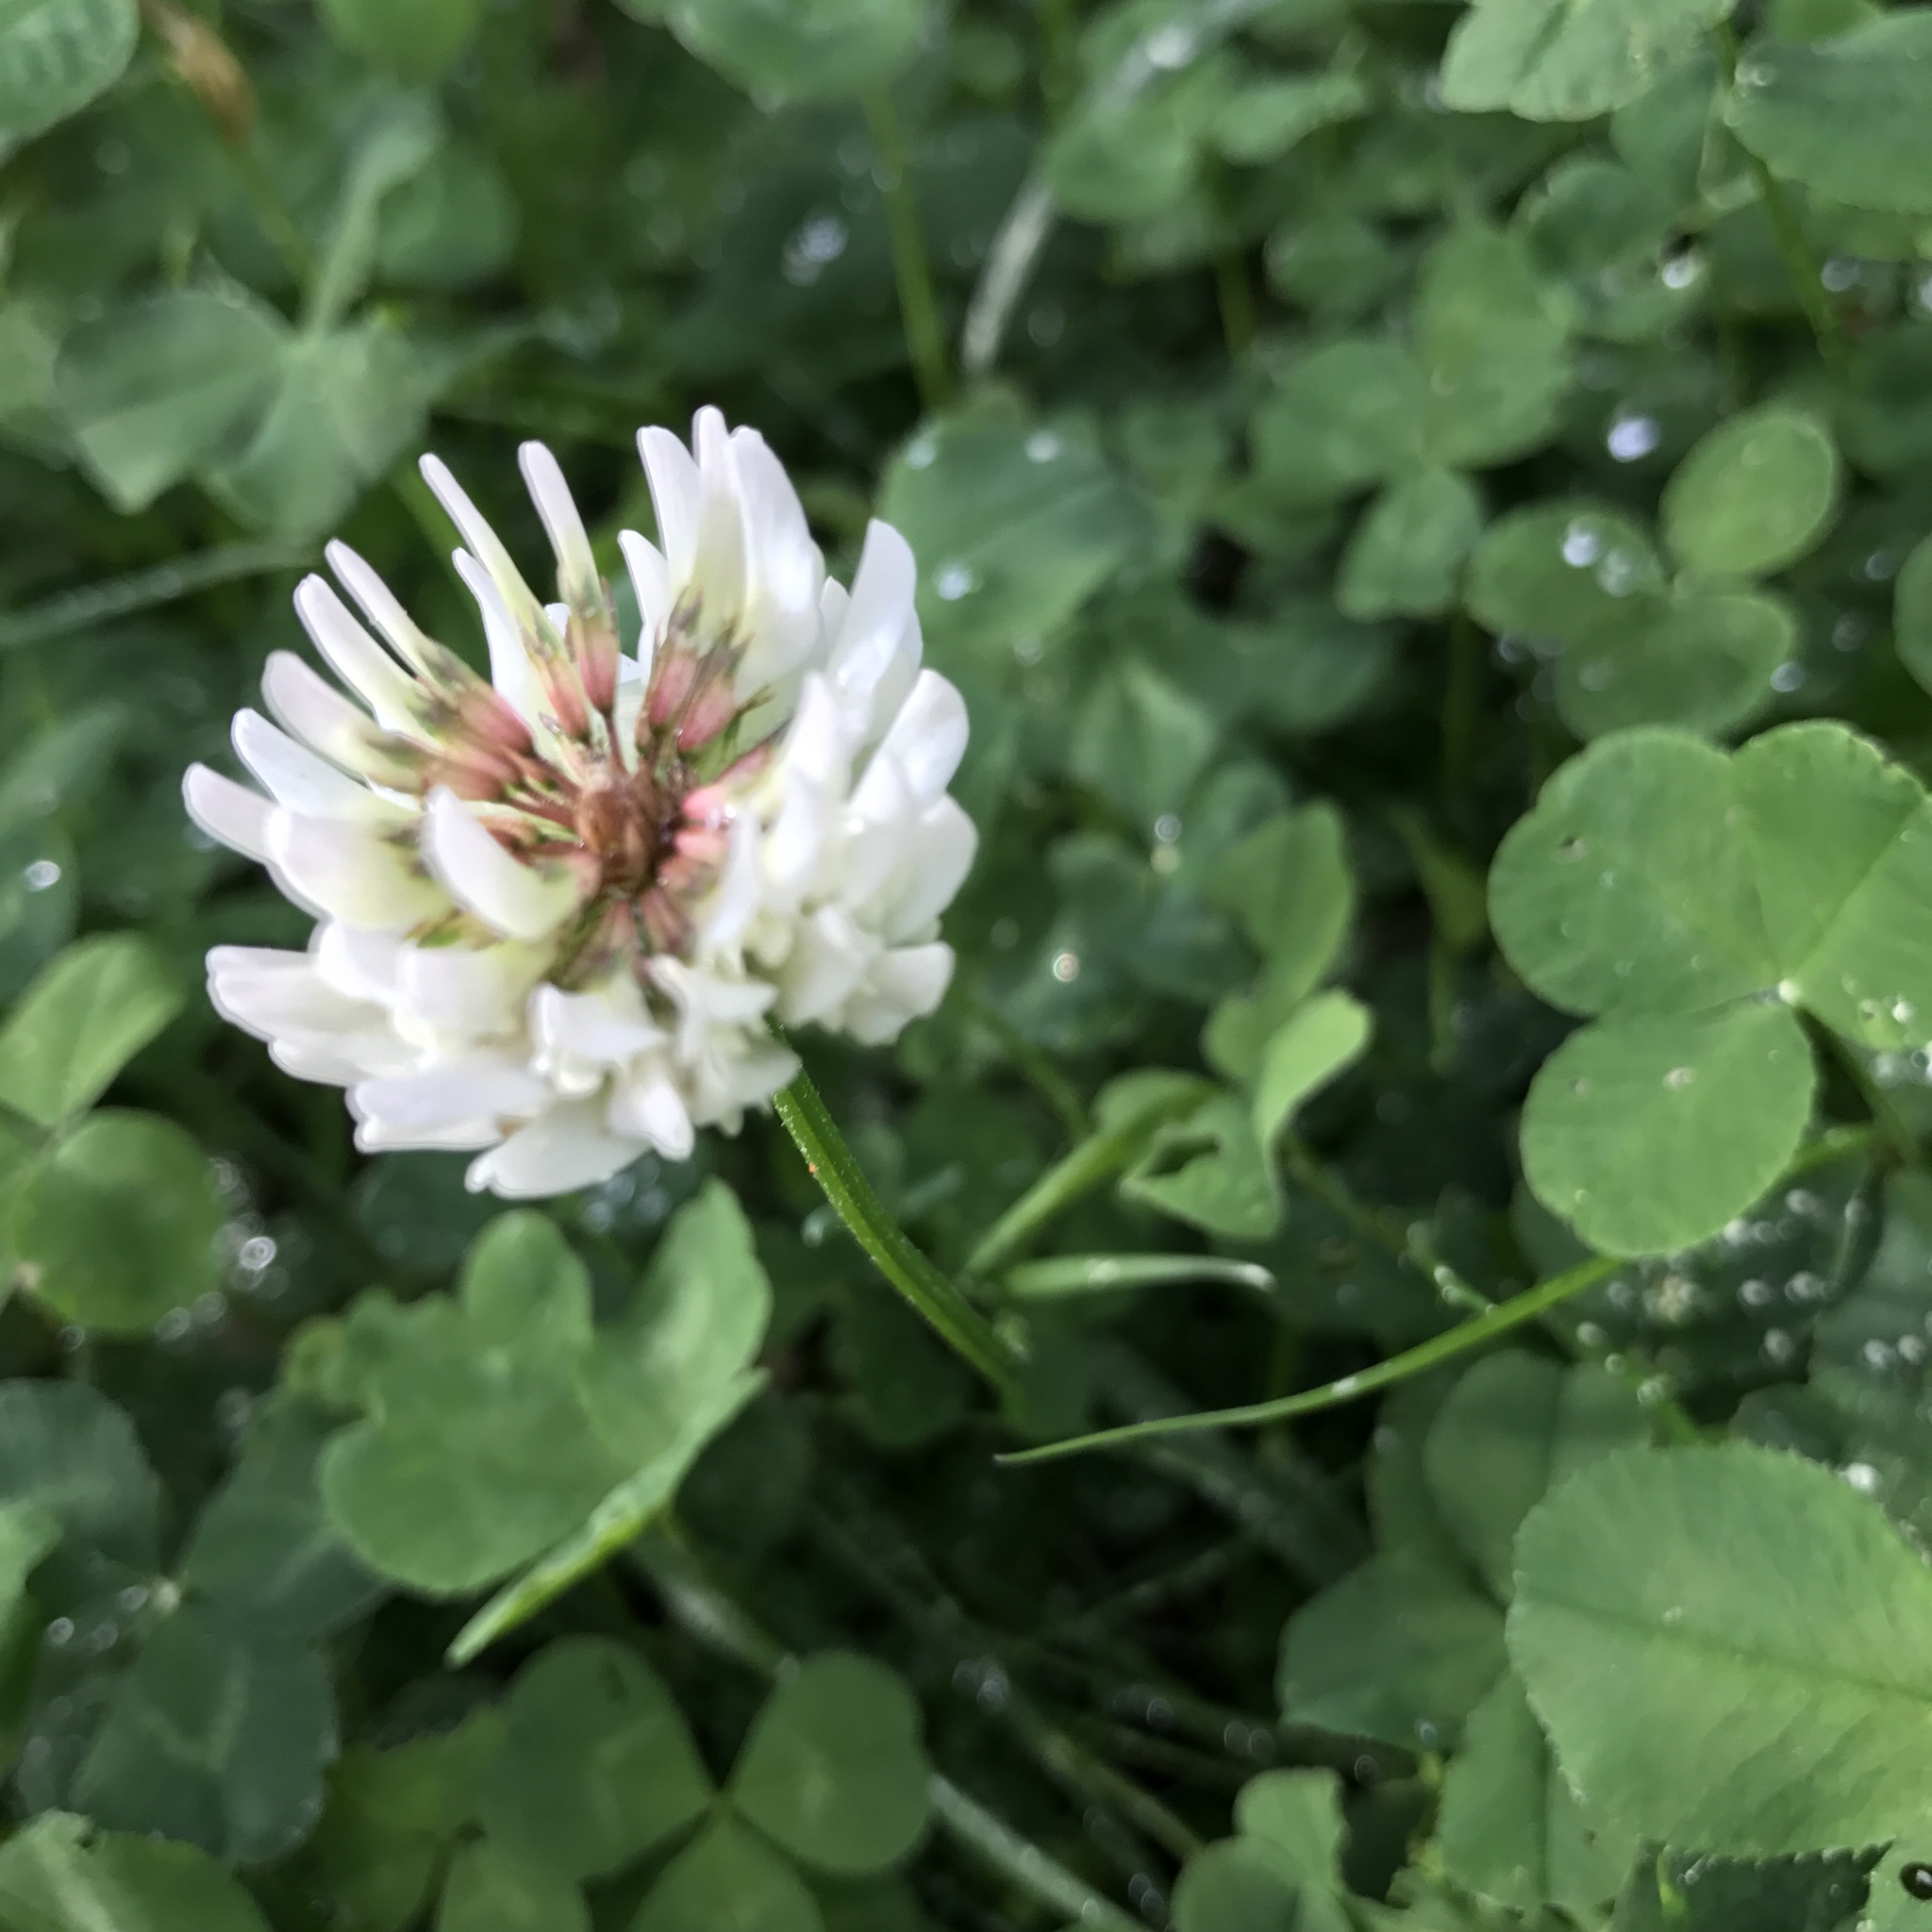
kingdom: Plantae
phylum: Tracheophyta
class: Magnoliopsida
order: Fabales
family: Fabaceae
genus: Trifolium
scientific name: Trifolium repens
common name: White clover
